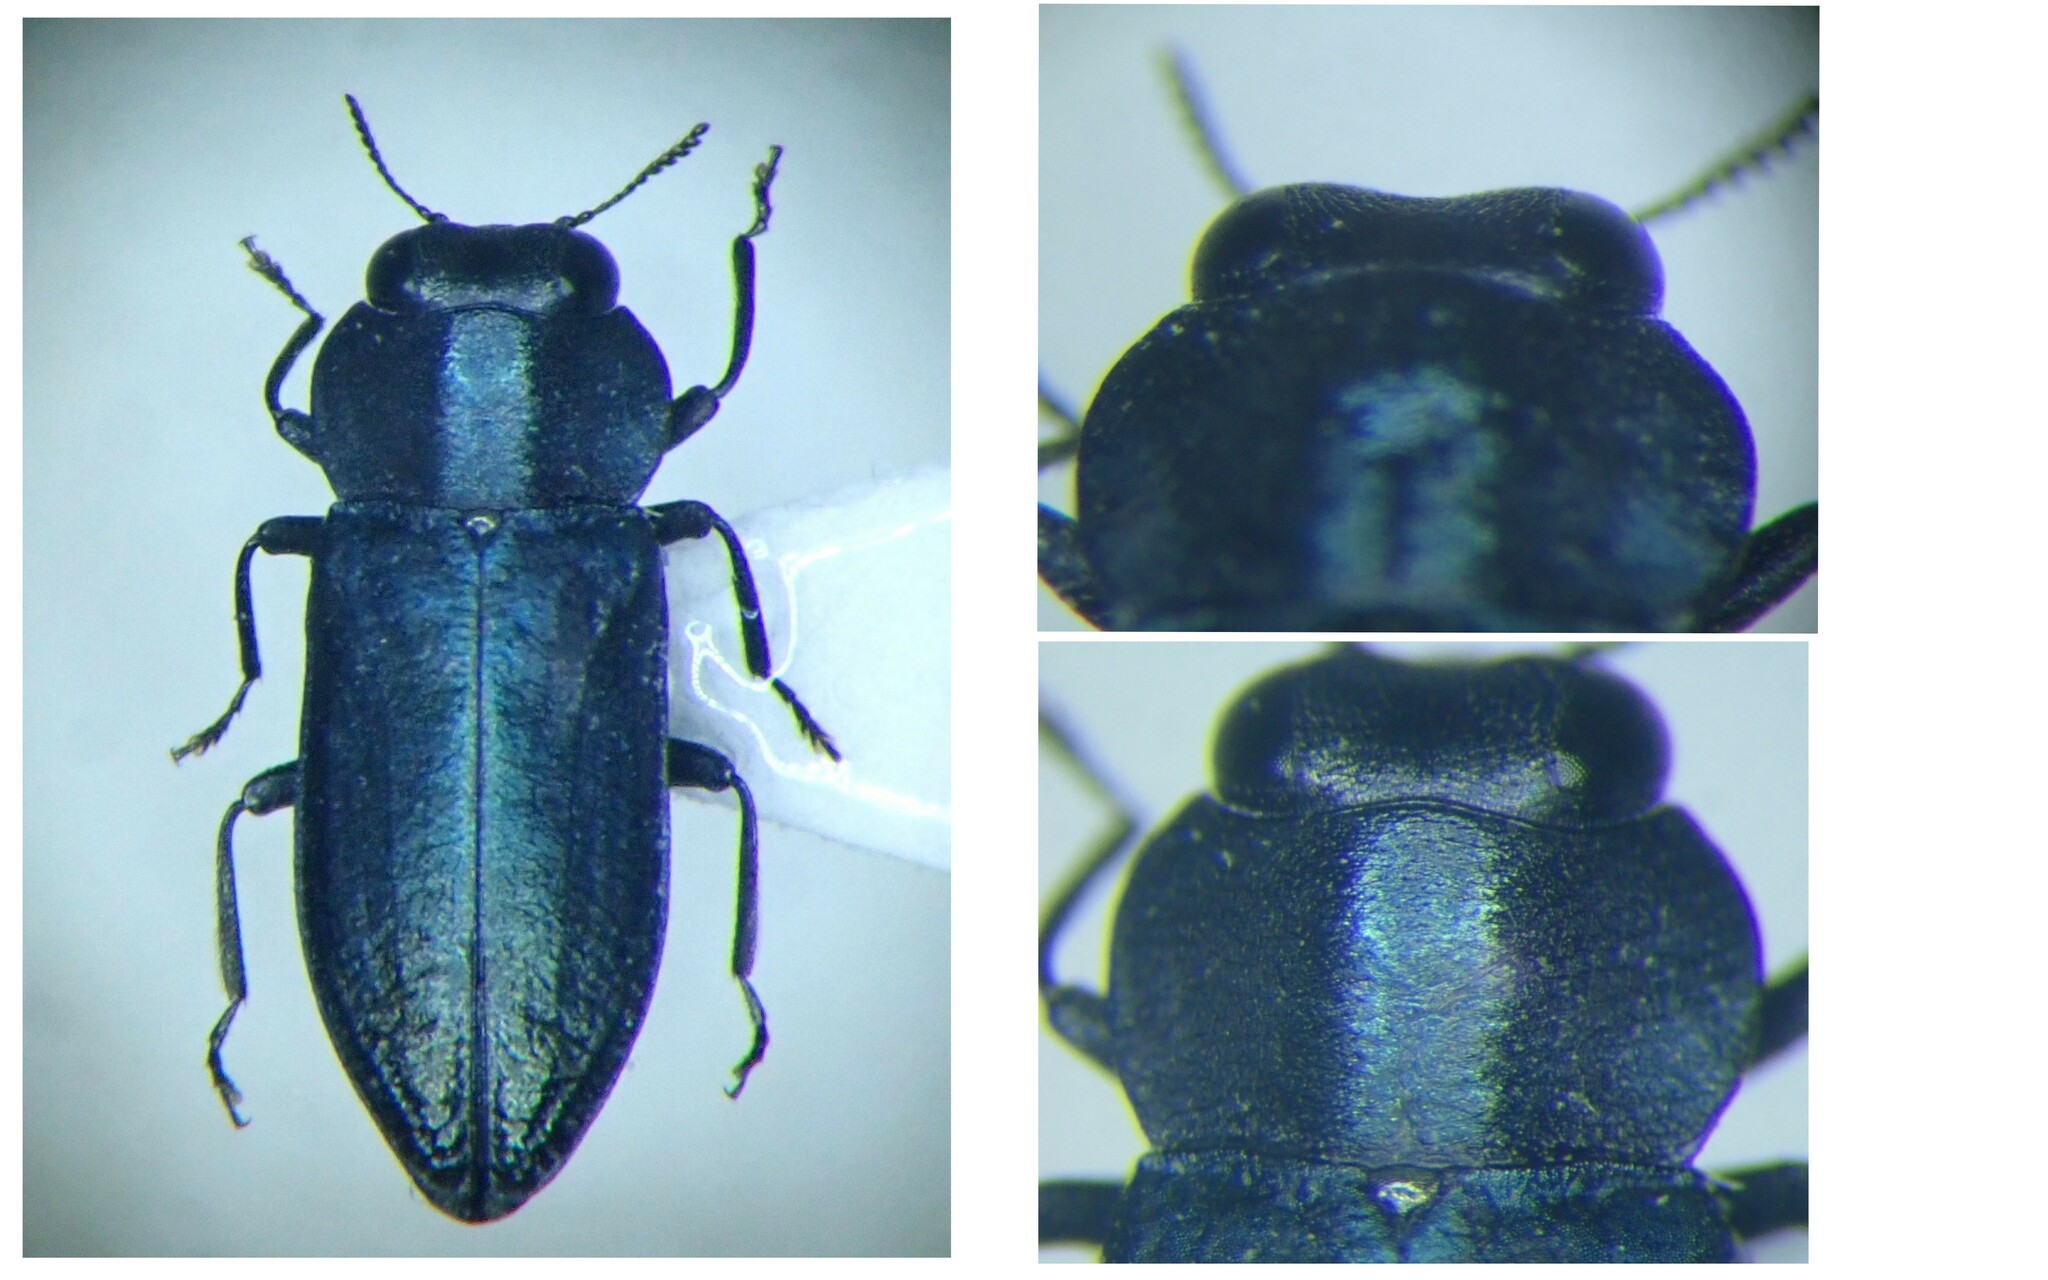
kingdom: Animalia
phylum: Arthropoda
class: Insecta
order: Coleoptera
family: Buprestidae
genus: Anthaxia
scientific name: Anthaxia bedeli
